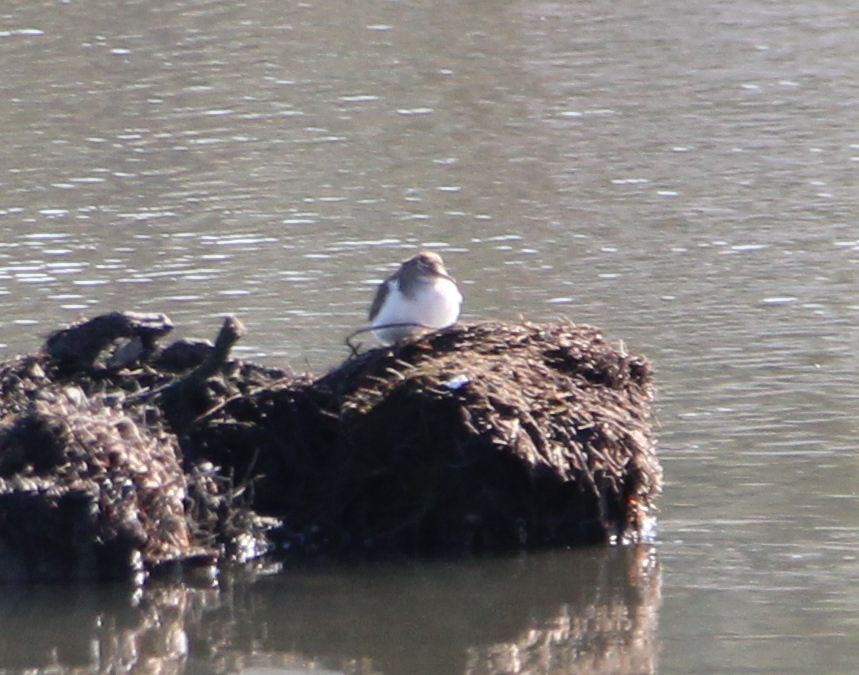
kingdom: Animalia
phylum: Chordata
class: Aves
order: Charadriiformes
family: Scolopacidae
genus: Actitis
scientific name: Actitis macularius
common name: Spotted sandpiper
